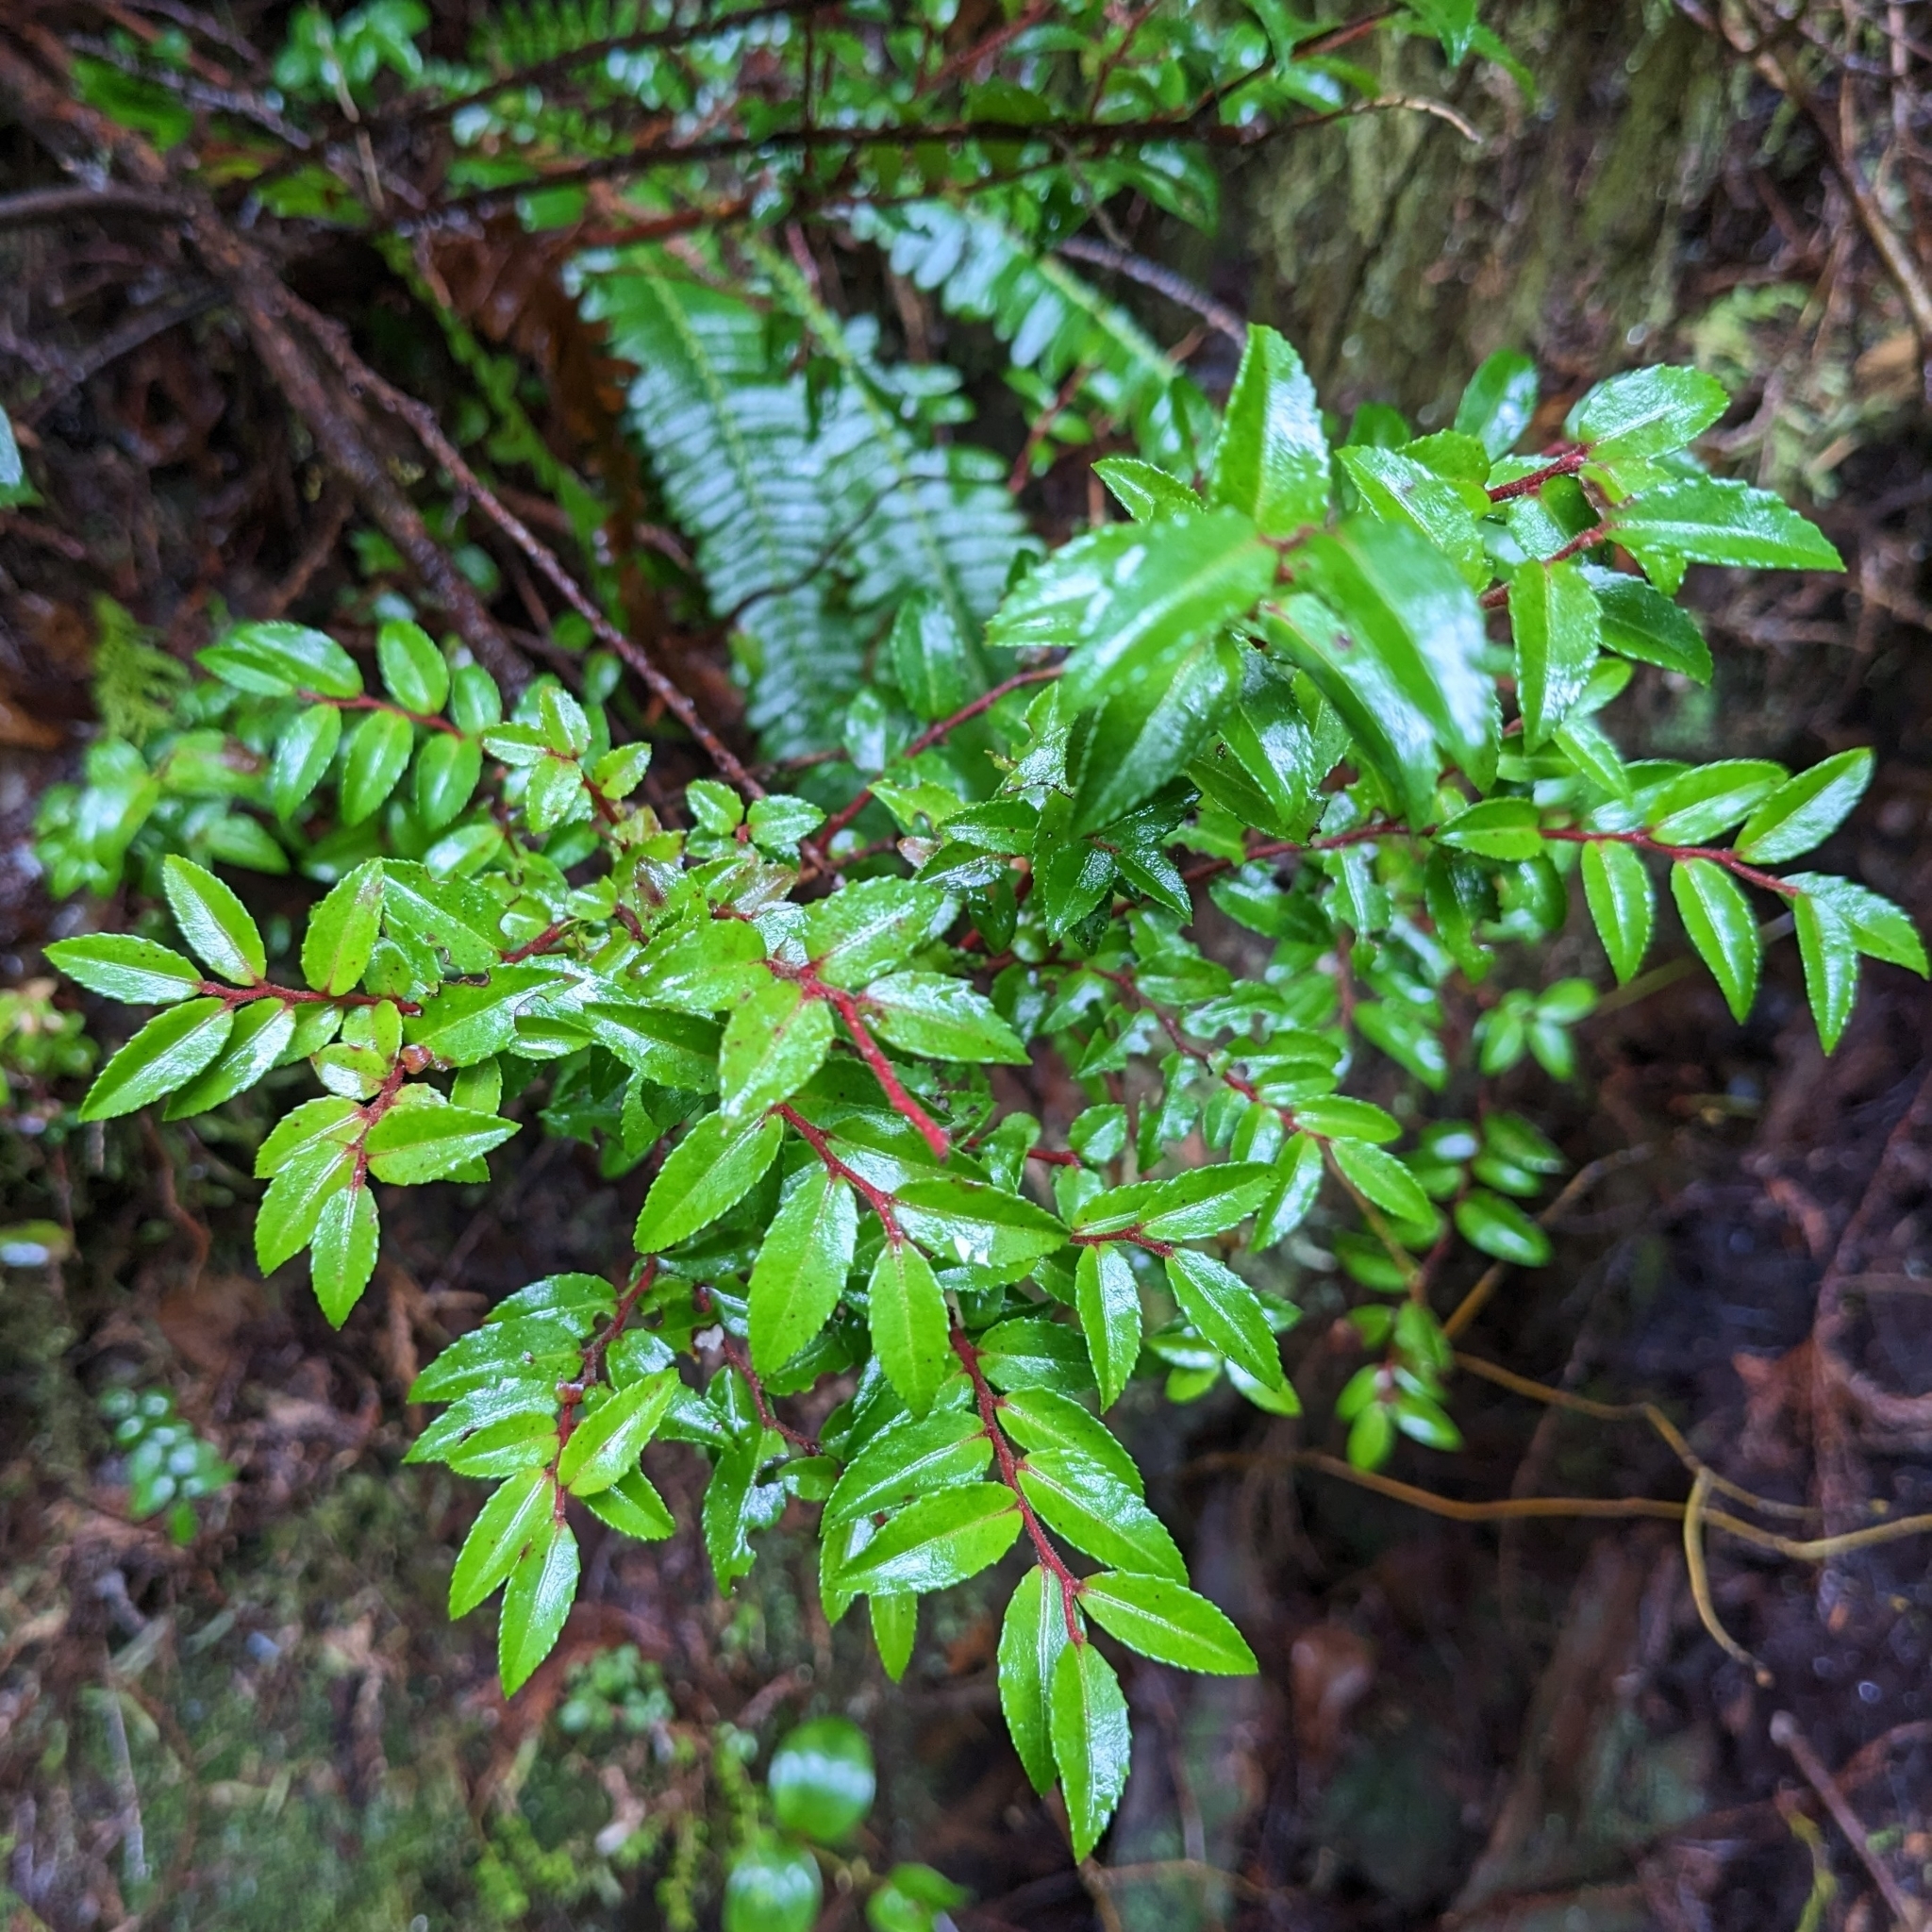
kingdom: Plantae
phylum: Tracheophyta
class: Magnoliopsida
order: Ericales
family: Ericaceae
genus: Vaccinium
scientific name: Vaccinium ovatum
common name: California-huckleberry
